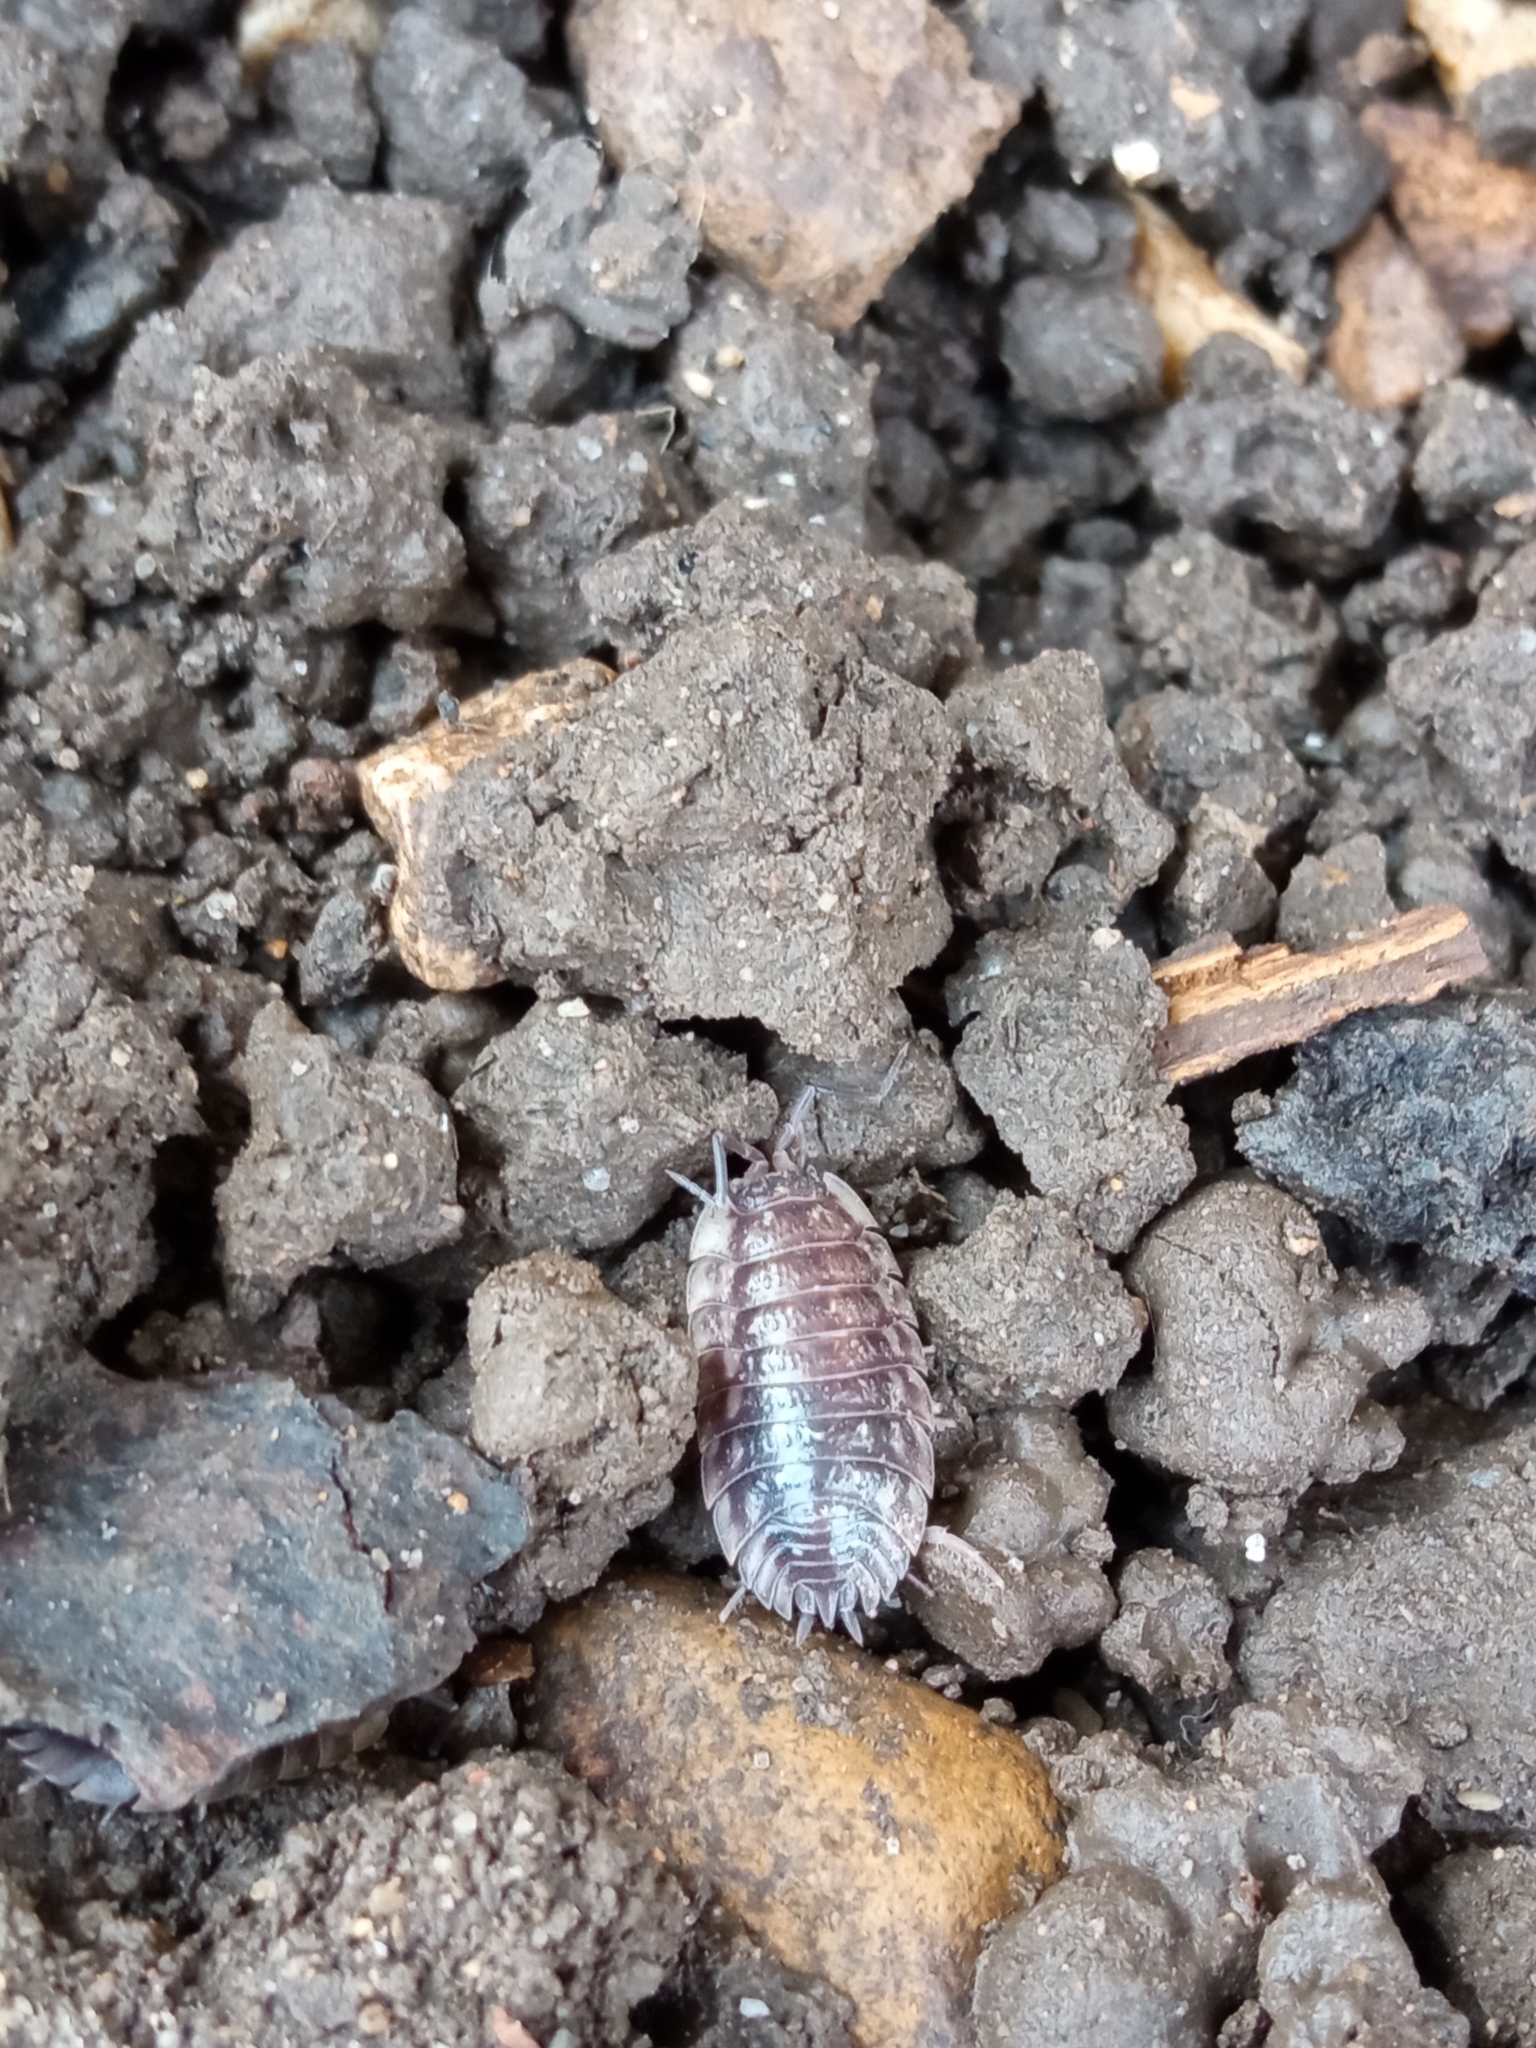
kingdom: Animalia
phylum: Arthropoda
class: Malacostraca
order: Isopoda
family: Oniscidae
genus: Oniscus
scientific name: Oniscus asellus
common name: Common shiny woodlouse
